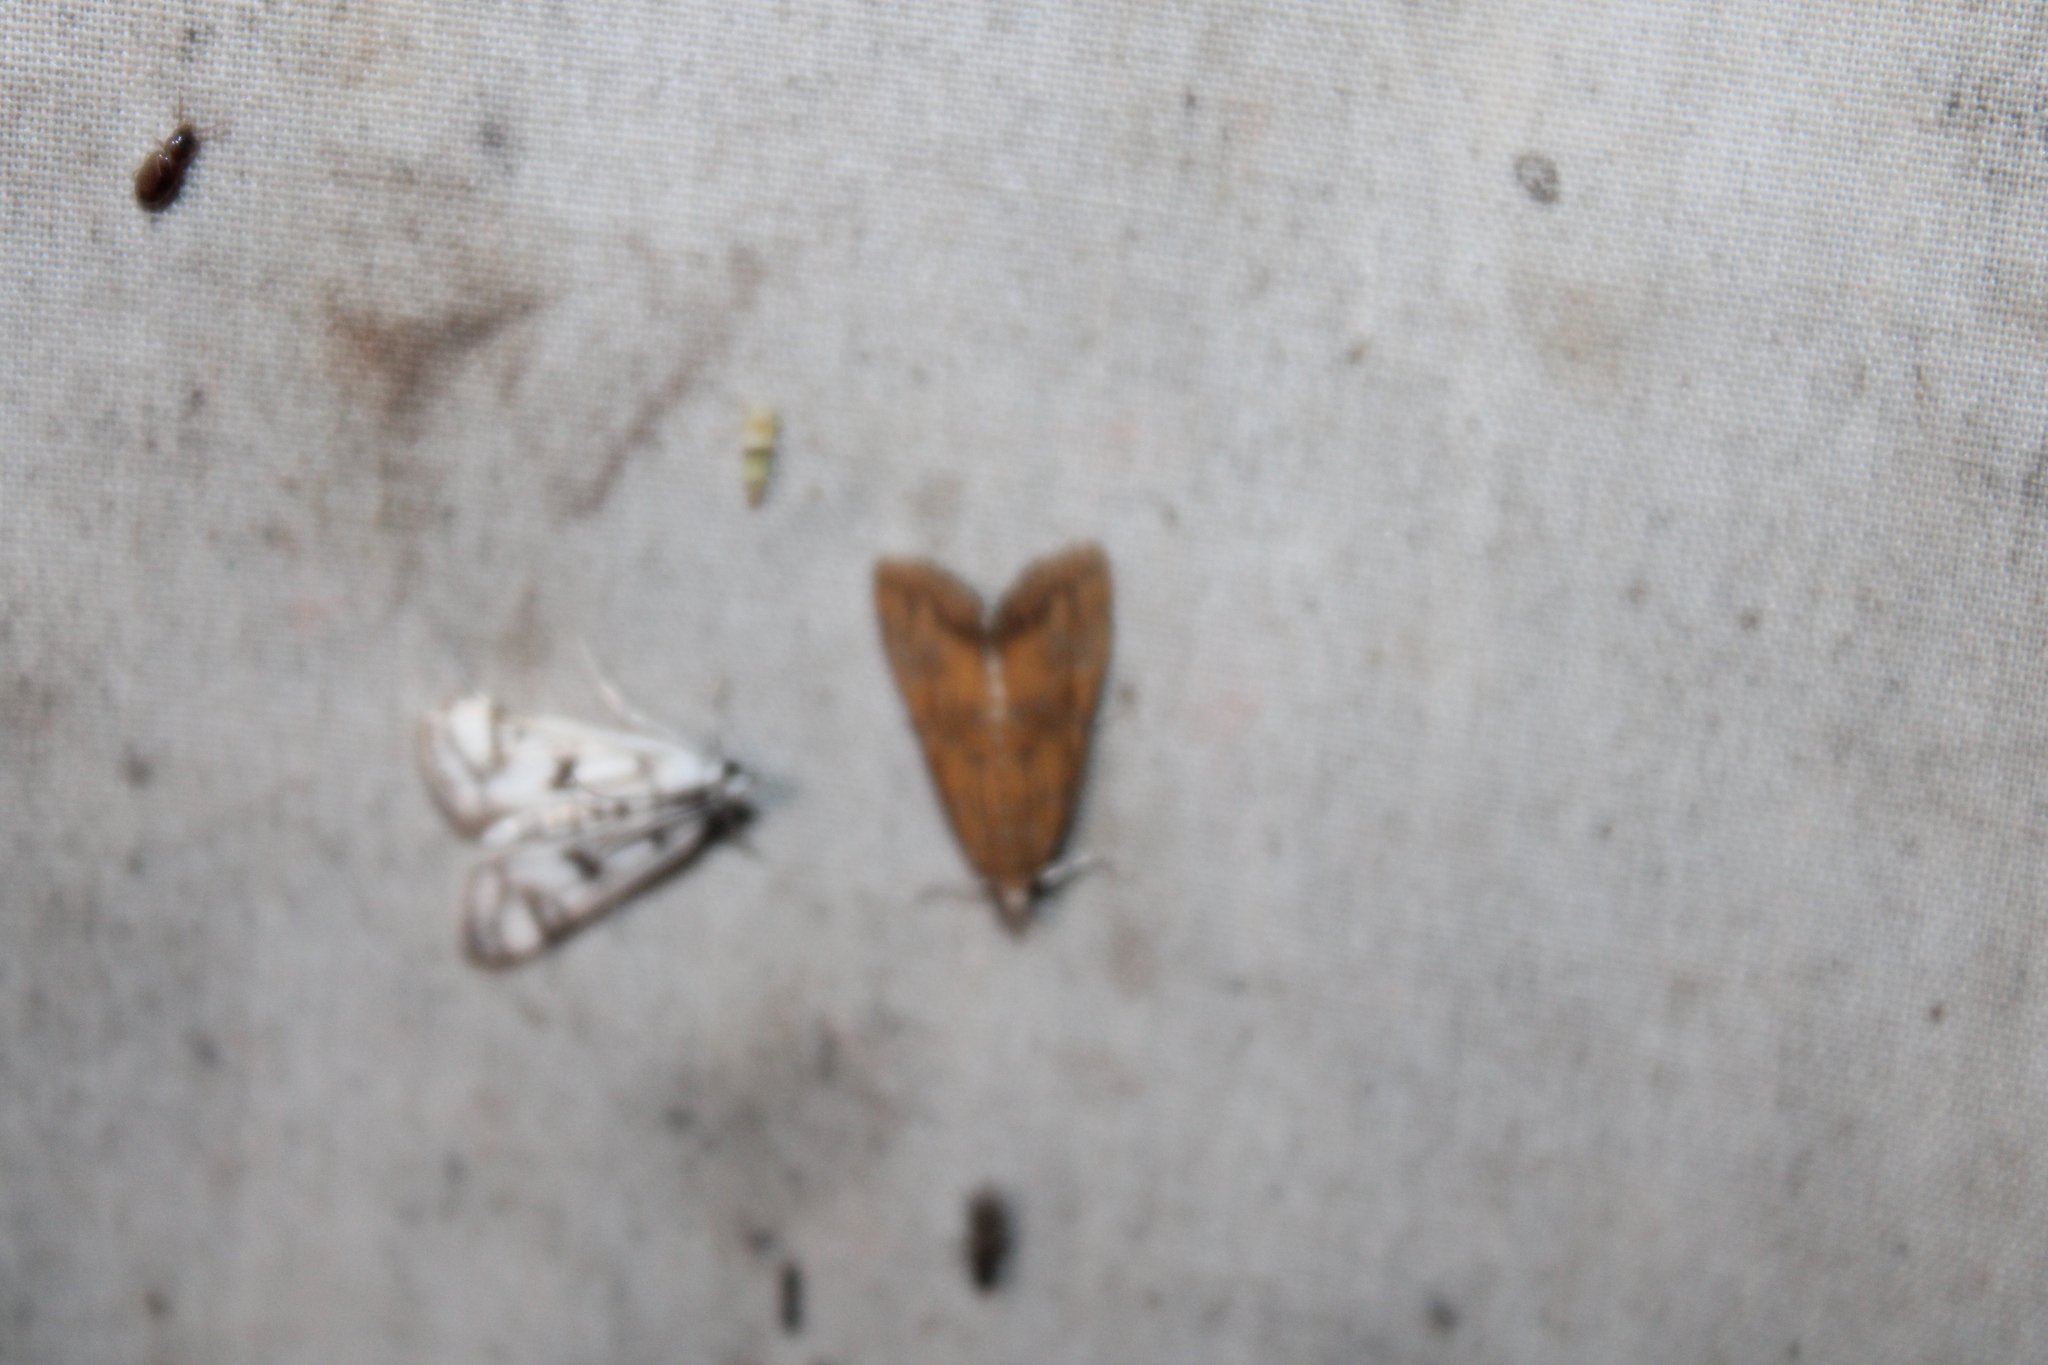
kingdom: Animalia
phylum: Arthropoda
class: Insecta
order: Lepidoptera
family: Crambidae
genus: Parapoynx
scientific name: Parapoynx maculalis
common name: Polymorphic pondweed moth
